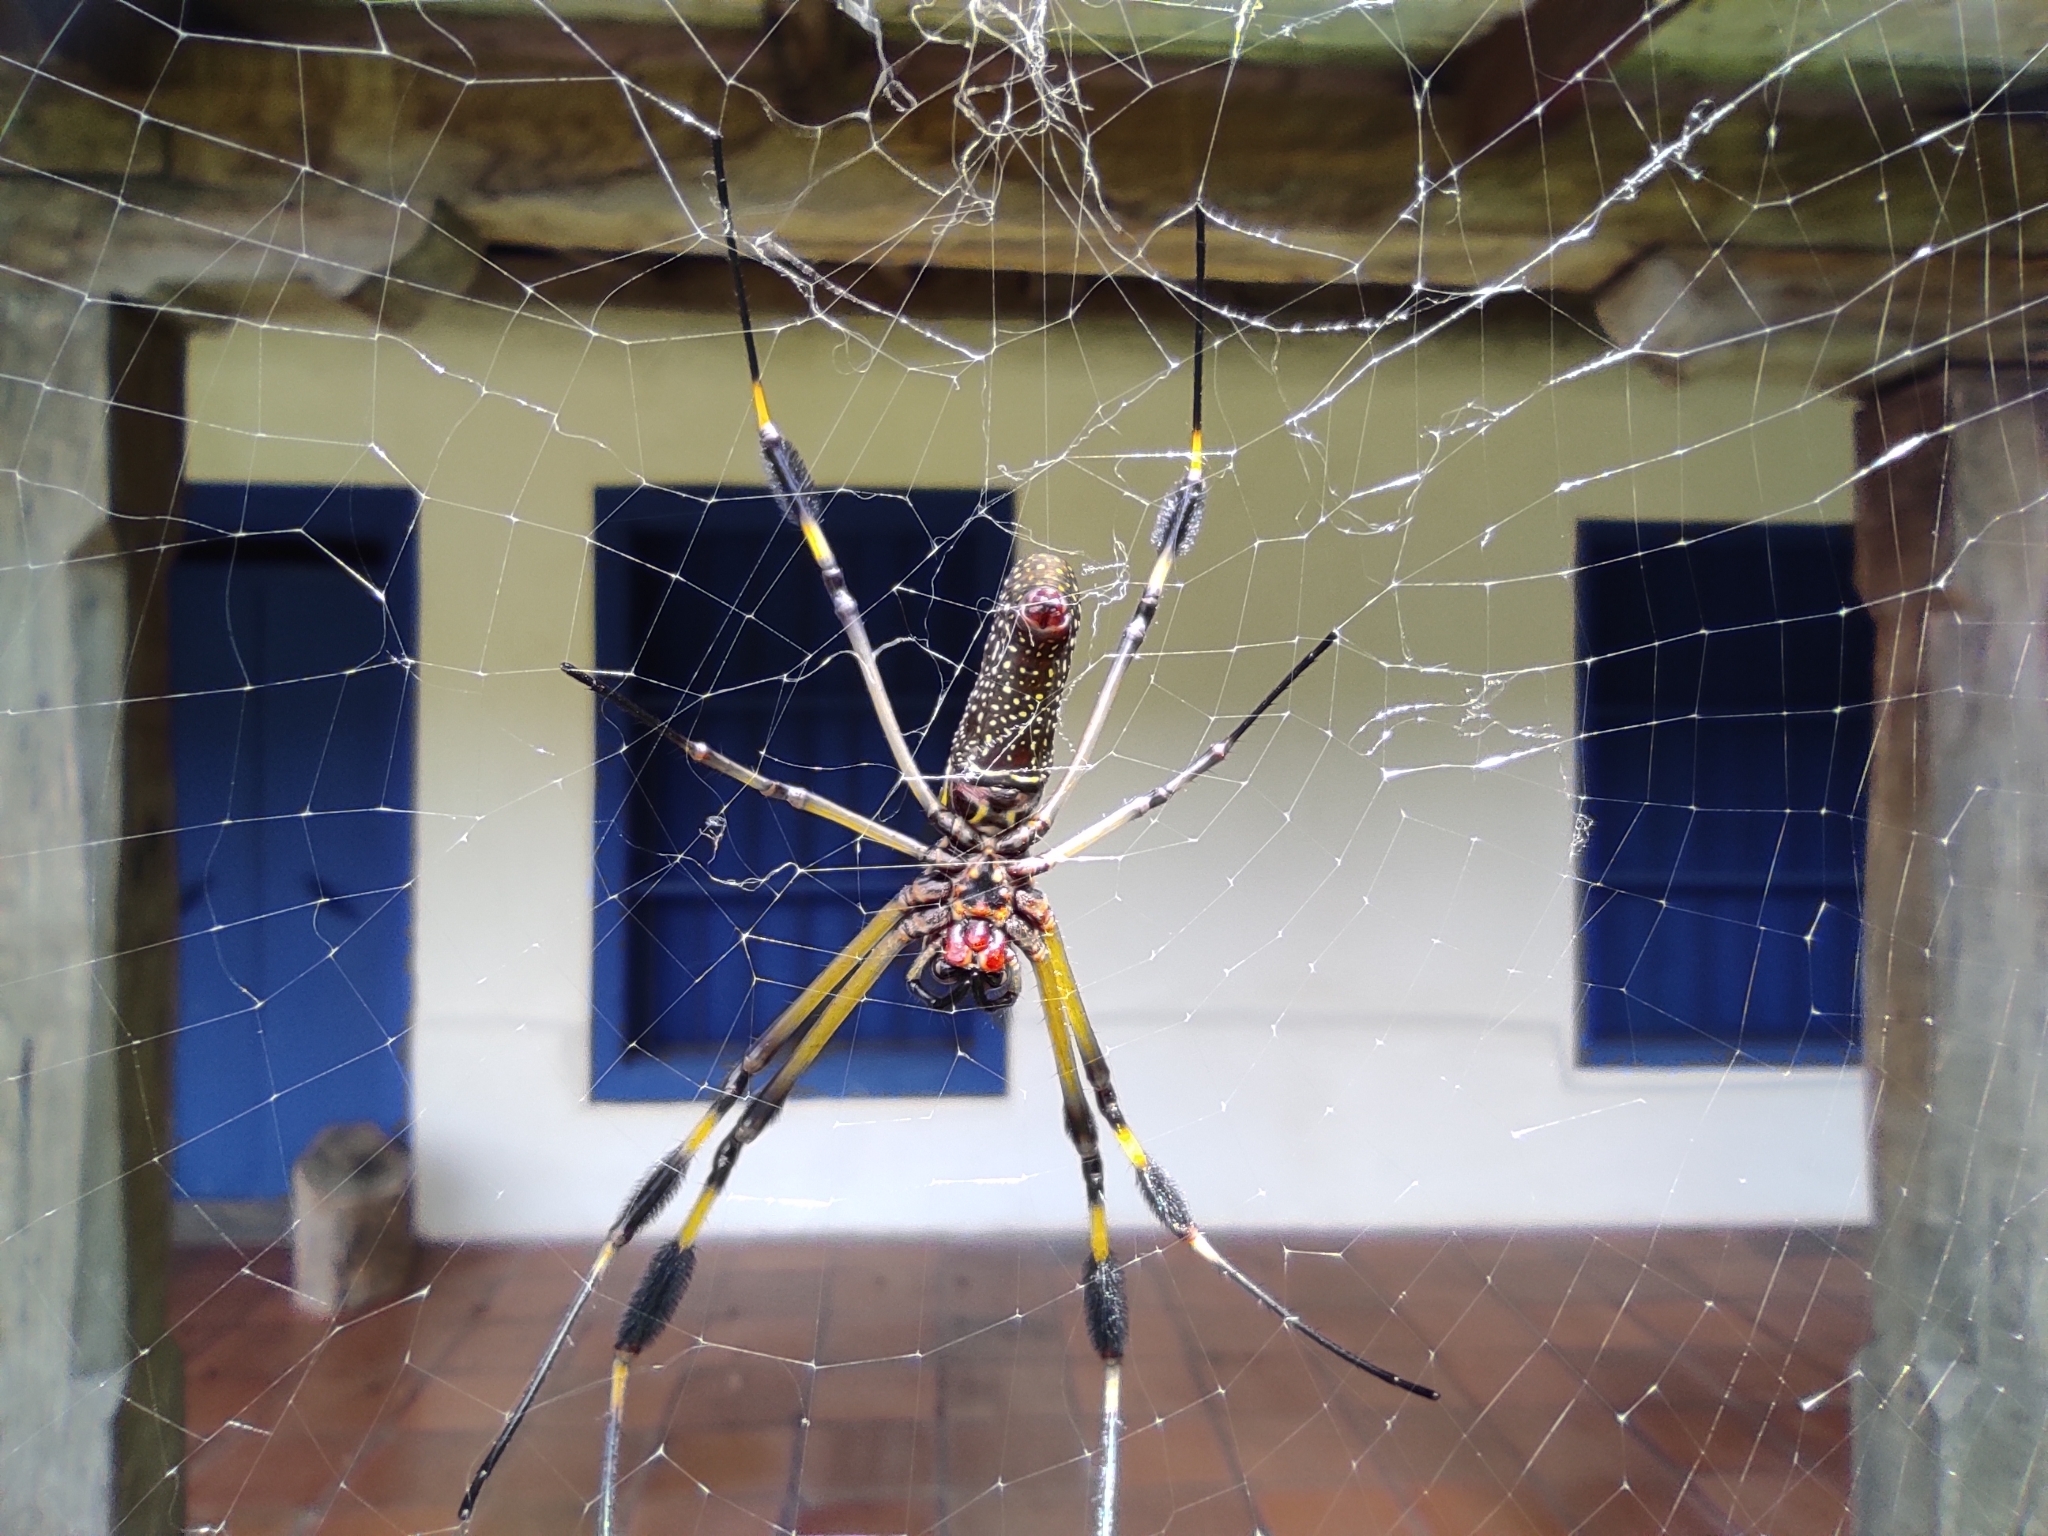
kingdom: Animalia
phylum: Arthropoda
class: Arachnida
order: Araneae
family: Araneidae
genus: Trichonephila
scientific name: Trichonephila clavipes
